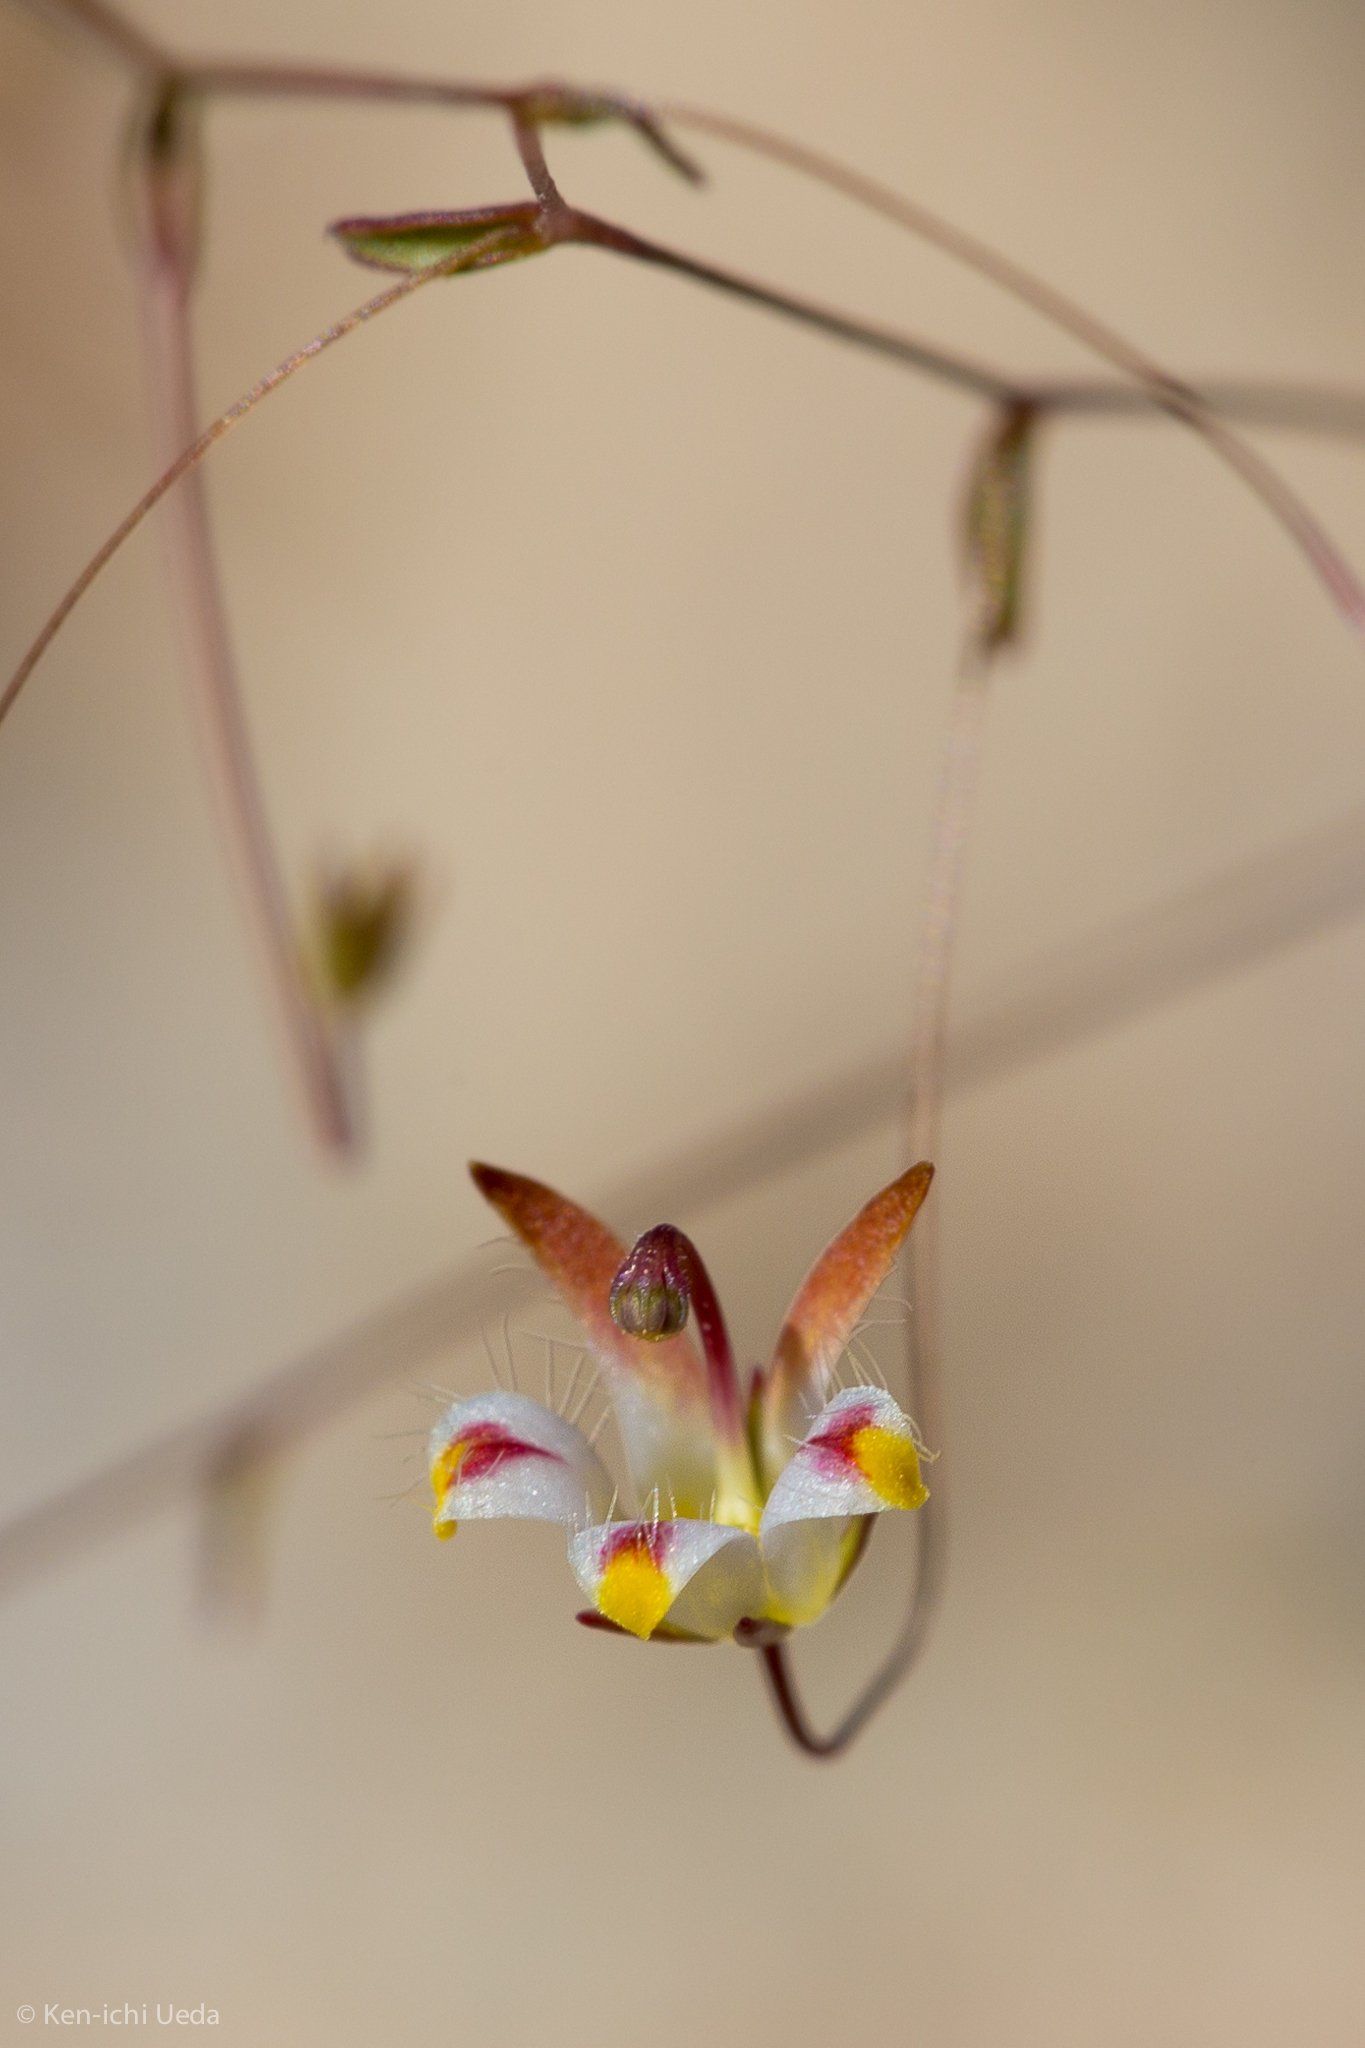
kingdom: Plantae
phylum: Tracheophyta
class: Magnoliopsida
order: Asterales
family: Campanulaceae
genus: Nemacladus
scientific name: Nemacladus tenuis
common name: Desert threadplant
